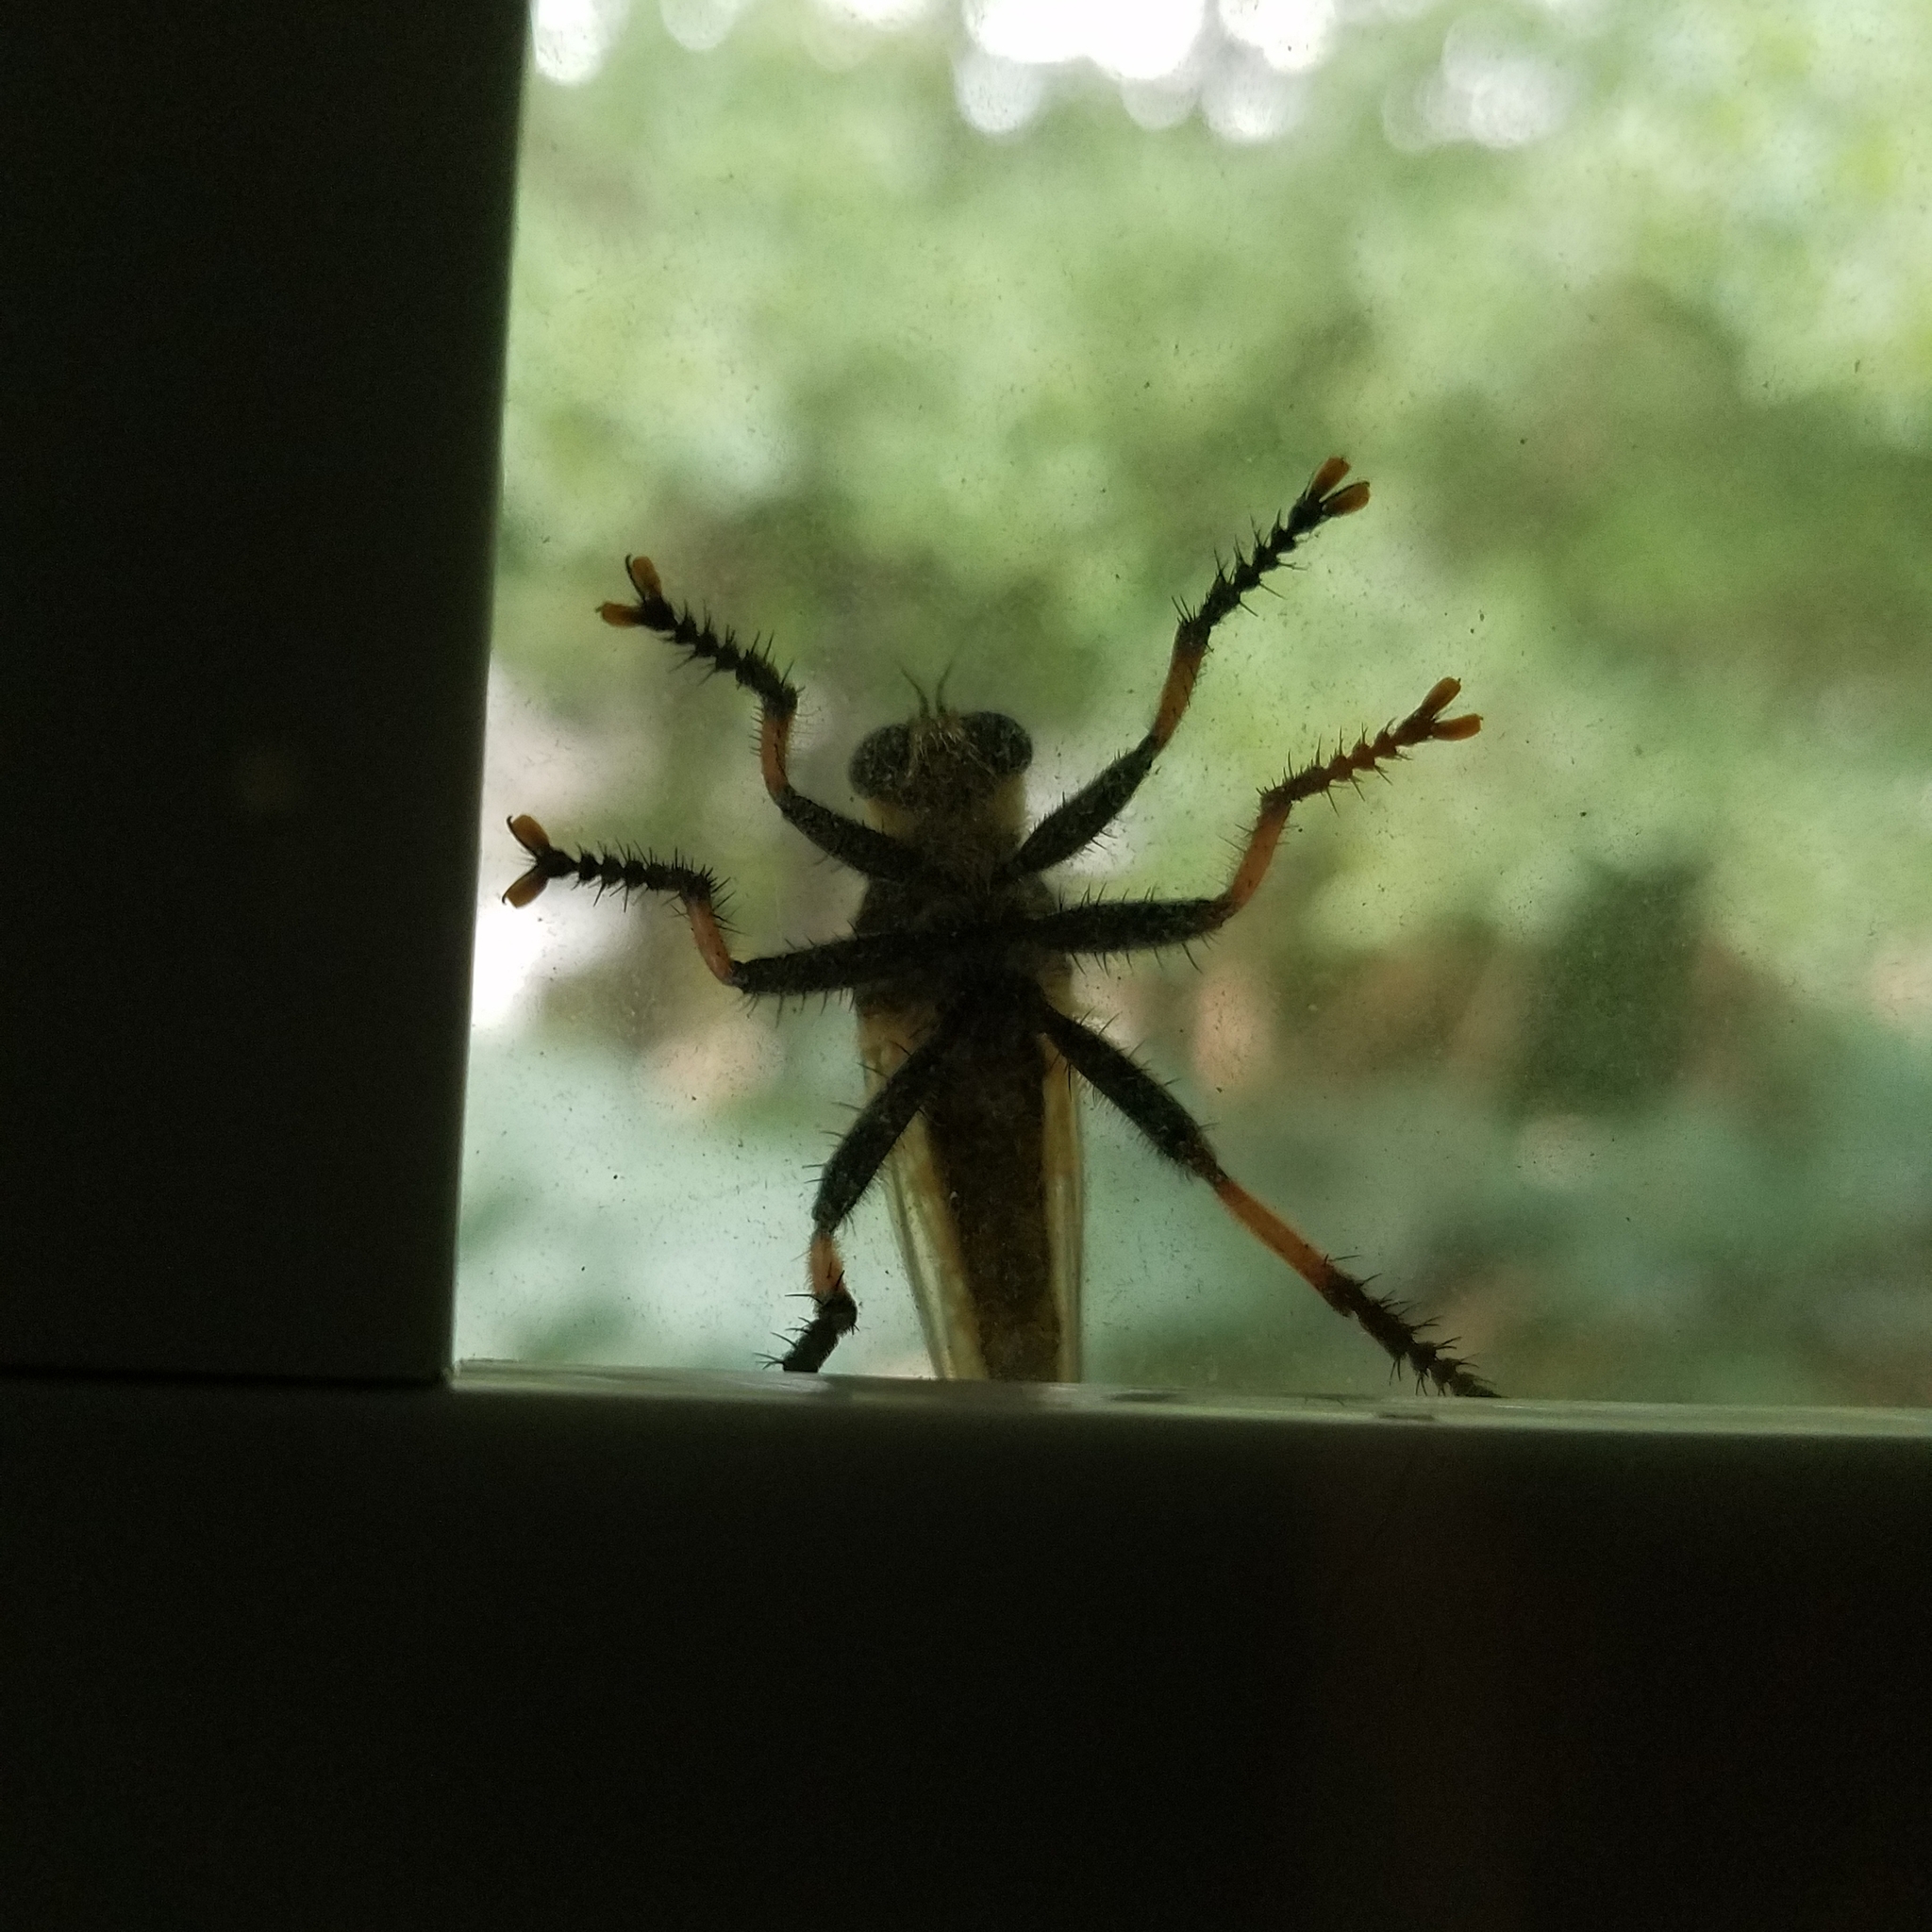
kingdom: Animalia
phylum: Arthropoda
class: Insecta
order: Diptera
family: Asilidae
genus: Promachus
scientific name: Promachus rufipes
